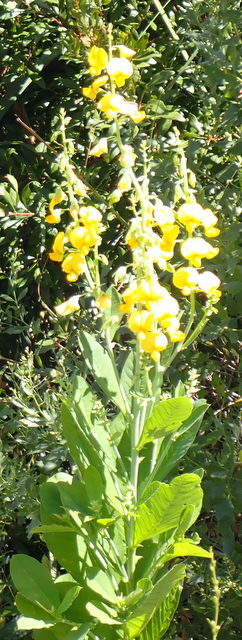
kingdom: Plantae
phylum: Tracheophyta
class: Magnoliopsida
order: Fabales
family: Fabaceae
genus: Crotalaria
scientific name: Crotalaria spectabilis
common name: Showy rattlebox
